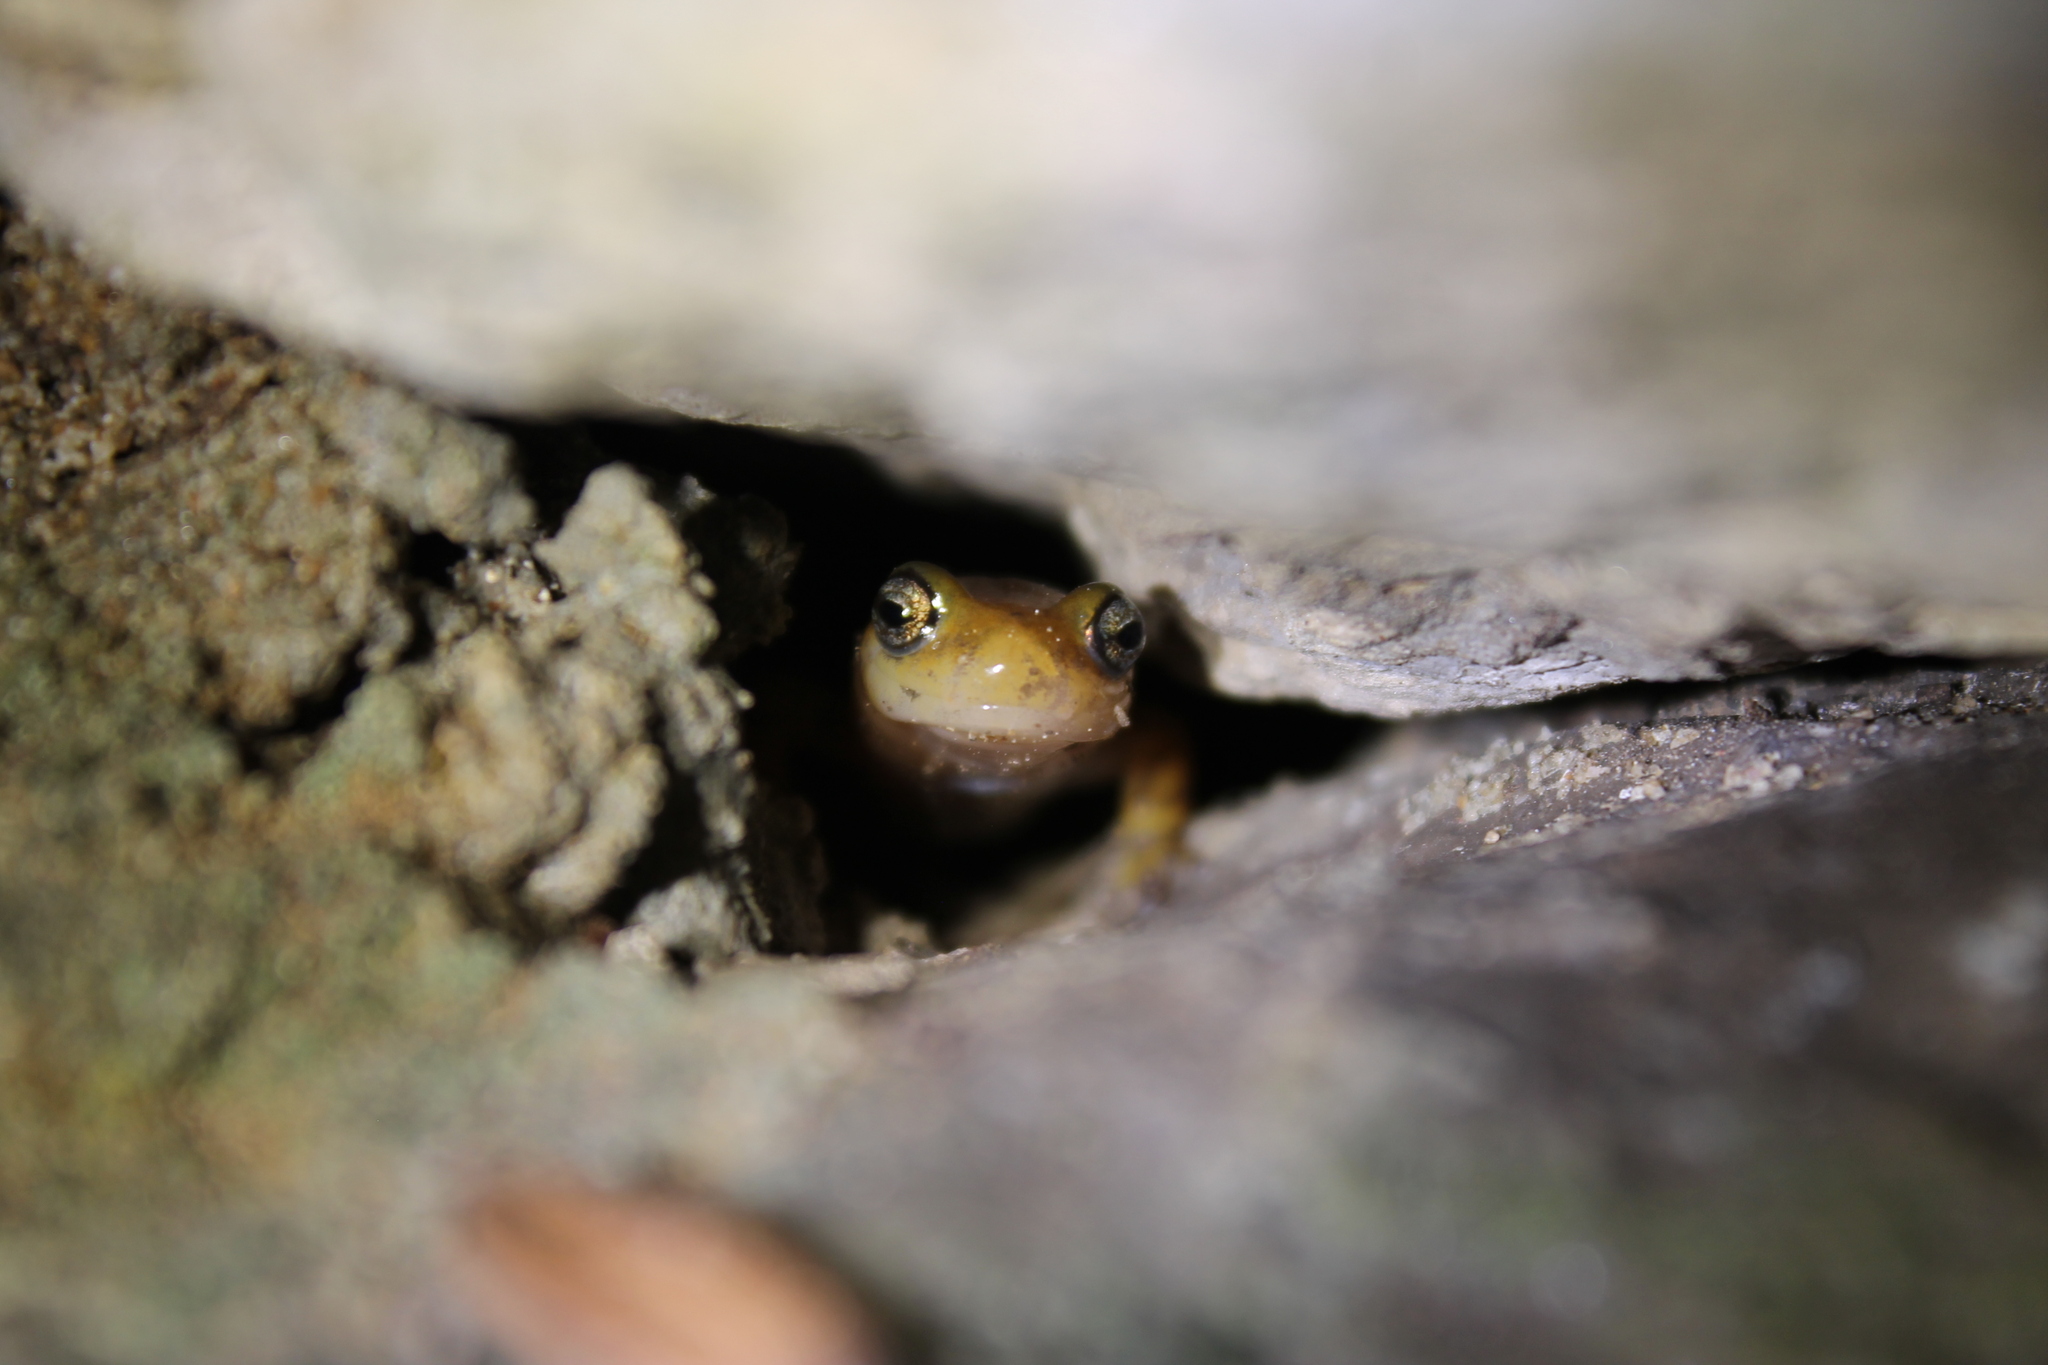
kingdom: Animalia
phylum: Chordata
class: Amphibia
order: Caudata
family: Plethodontidae
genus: Eurycea
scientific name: Eurycea longicauda
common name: Long-tailed salamander
